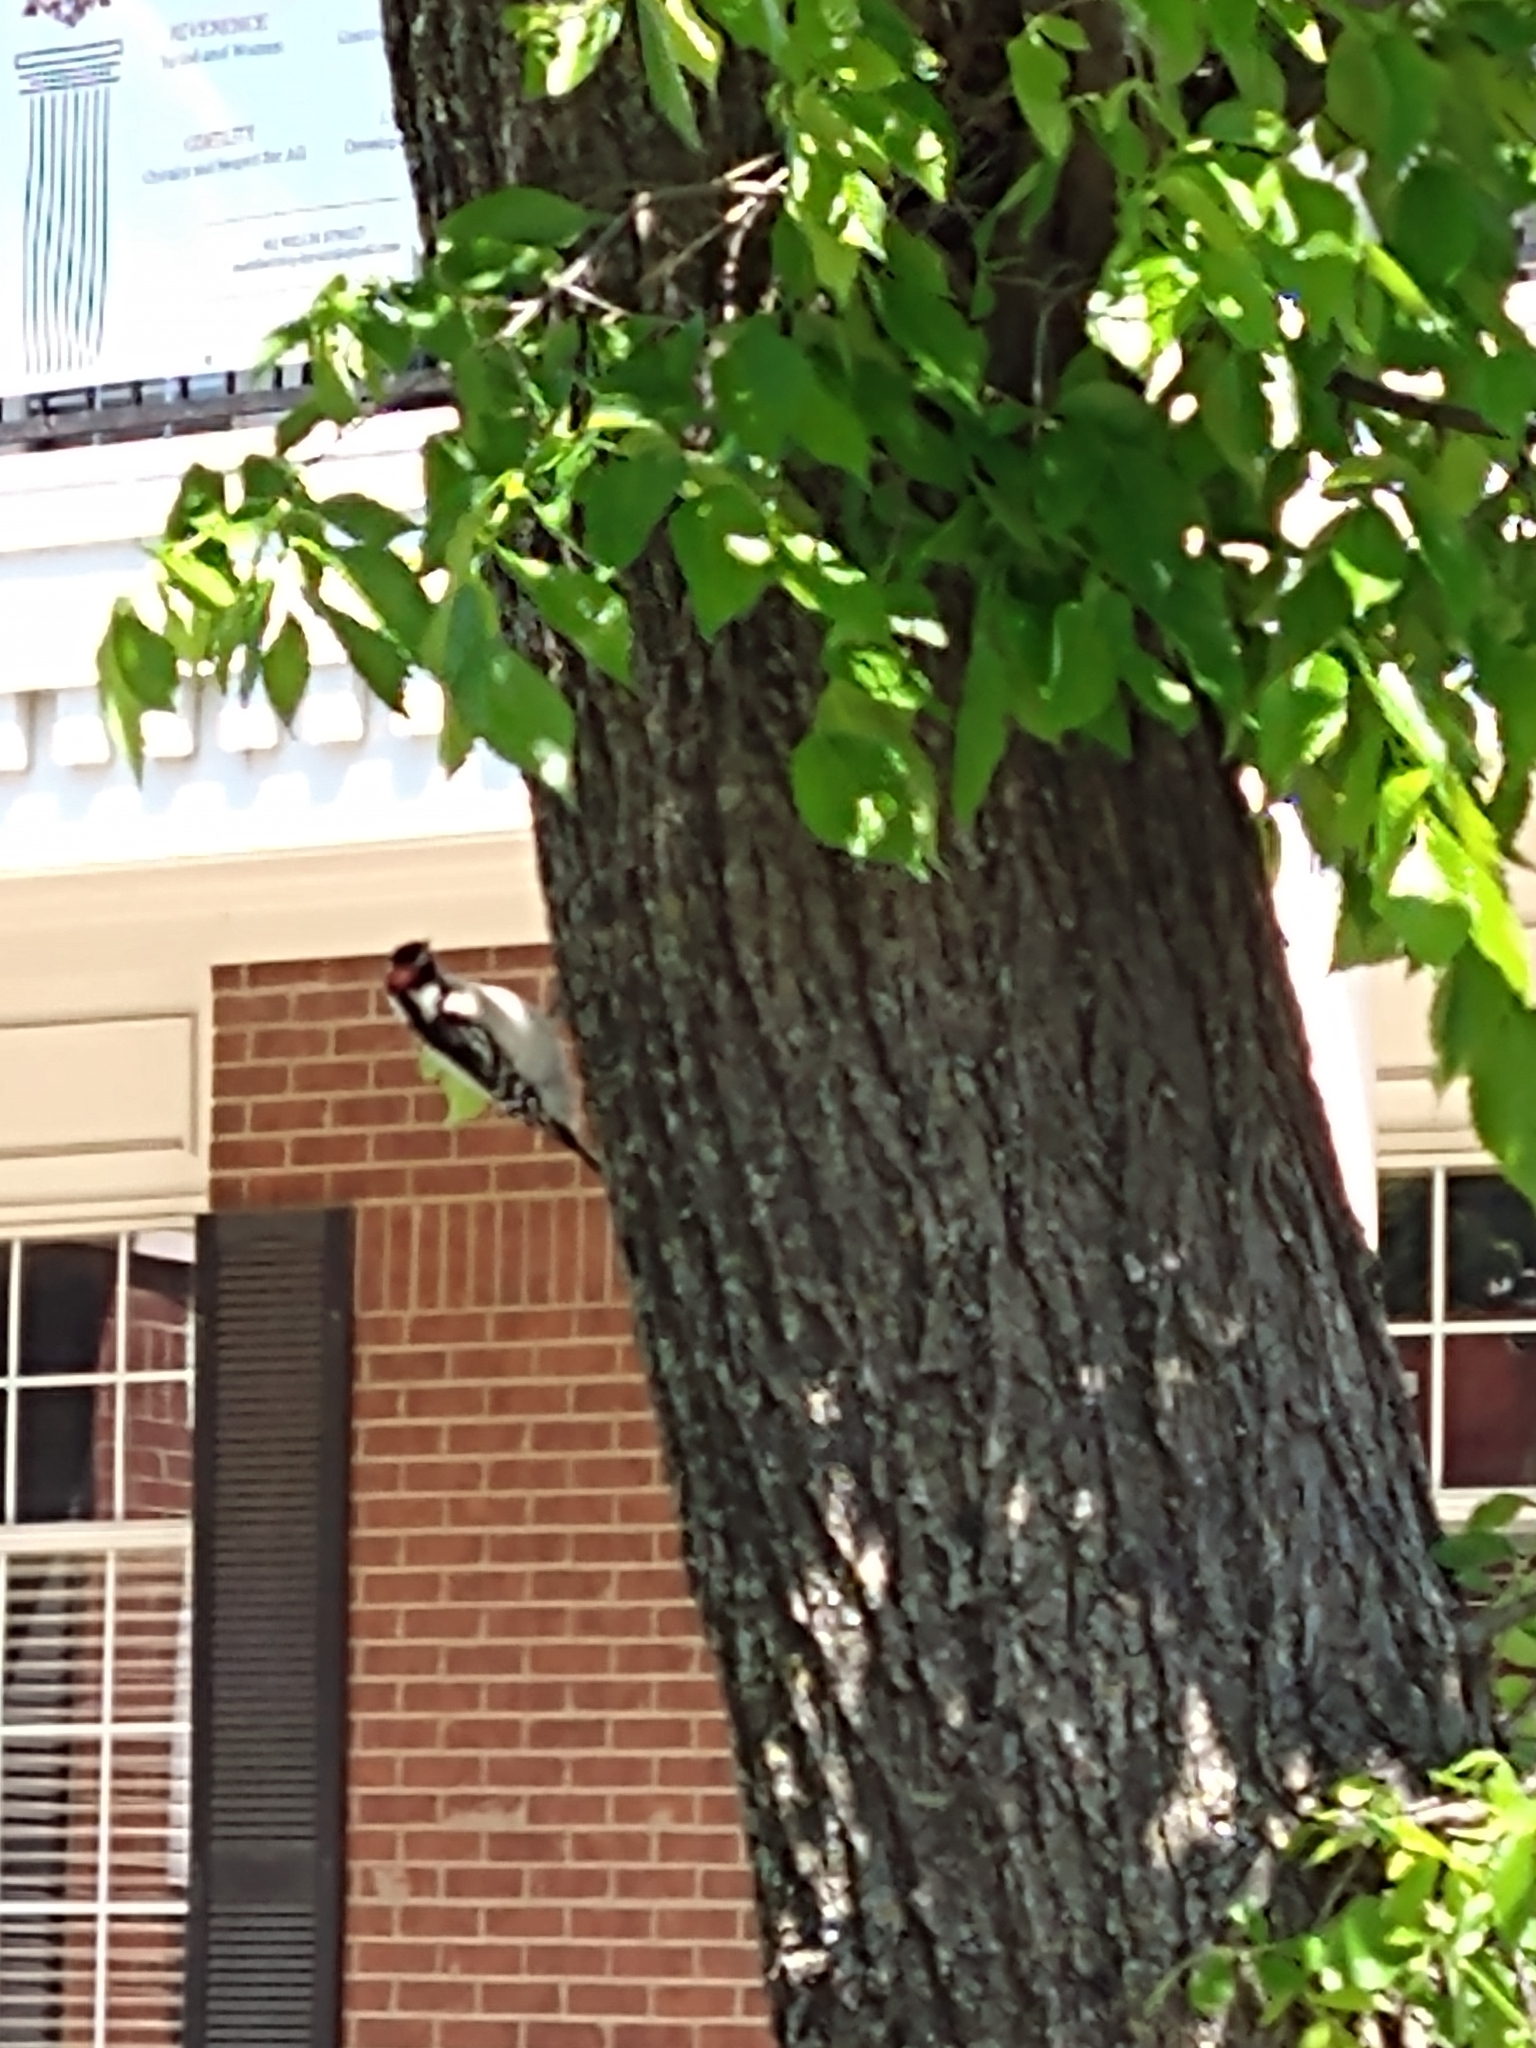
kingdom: Animalia
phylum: Chordata
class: Aves
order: Piciformes
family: Picidae
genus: Dryobates
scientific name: Dryobates pubescens
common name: Downy woodpecker
